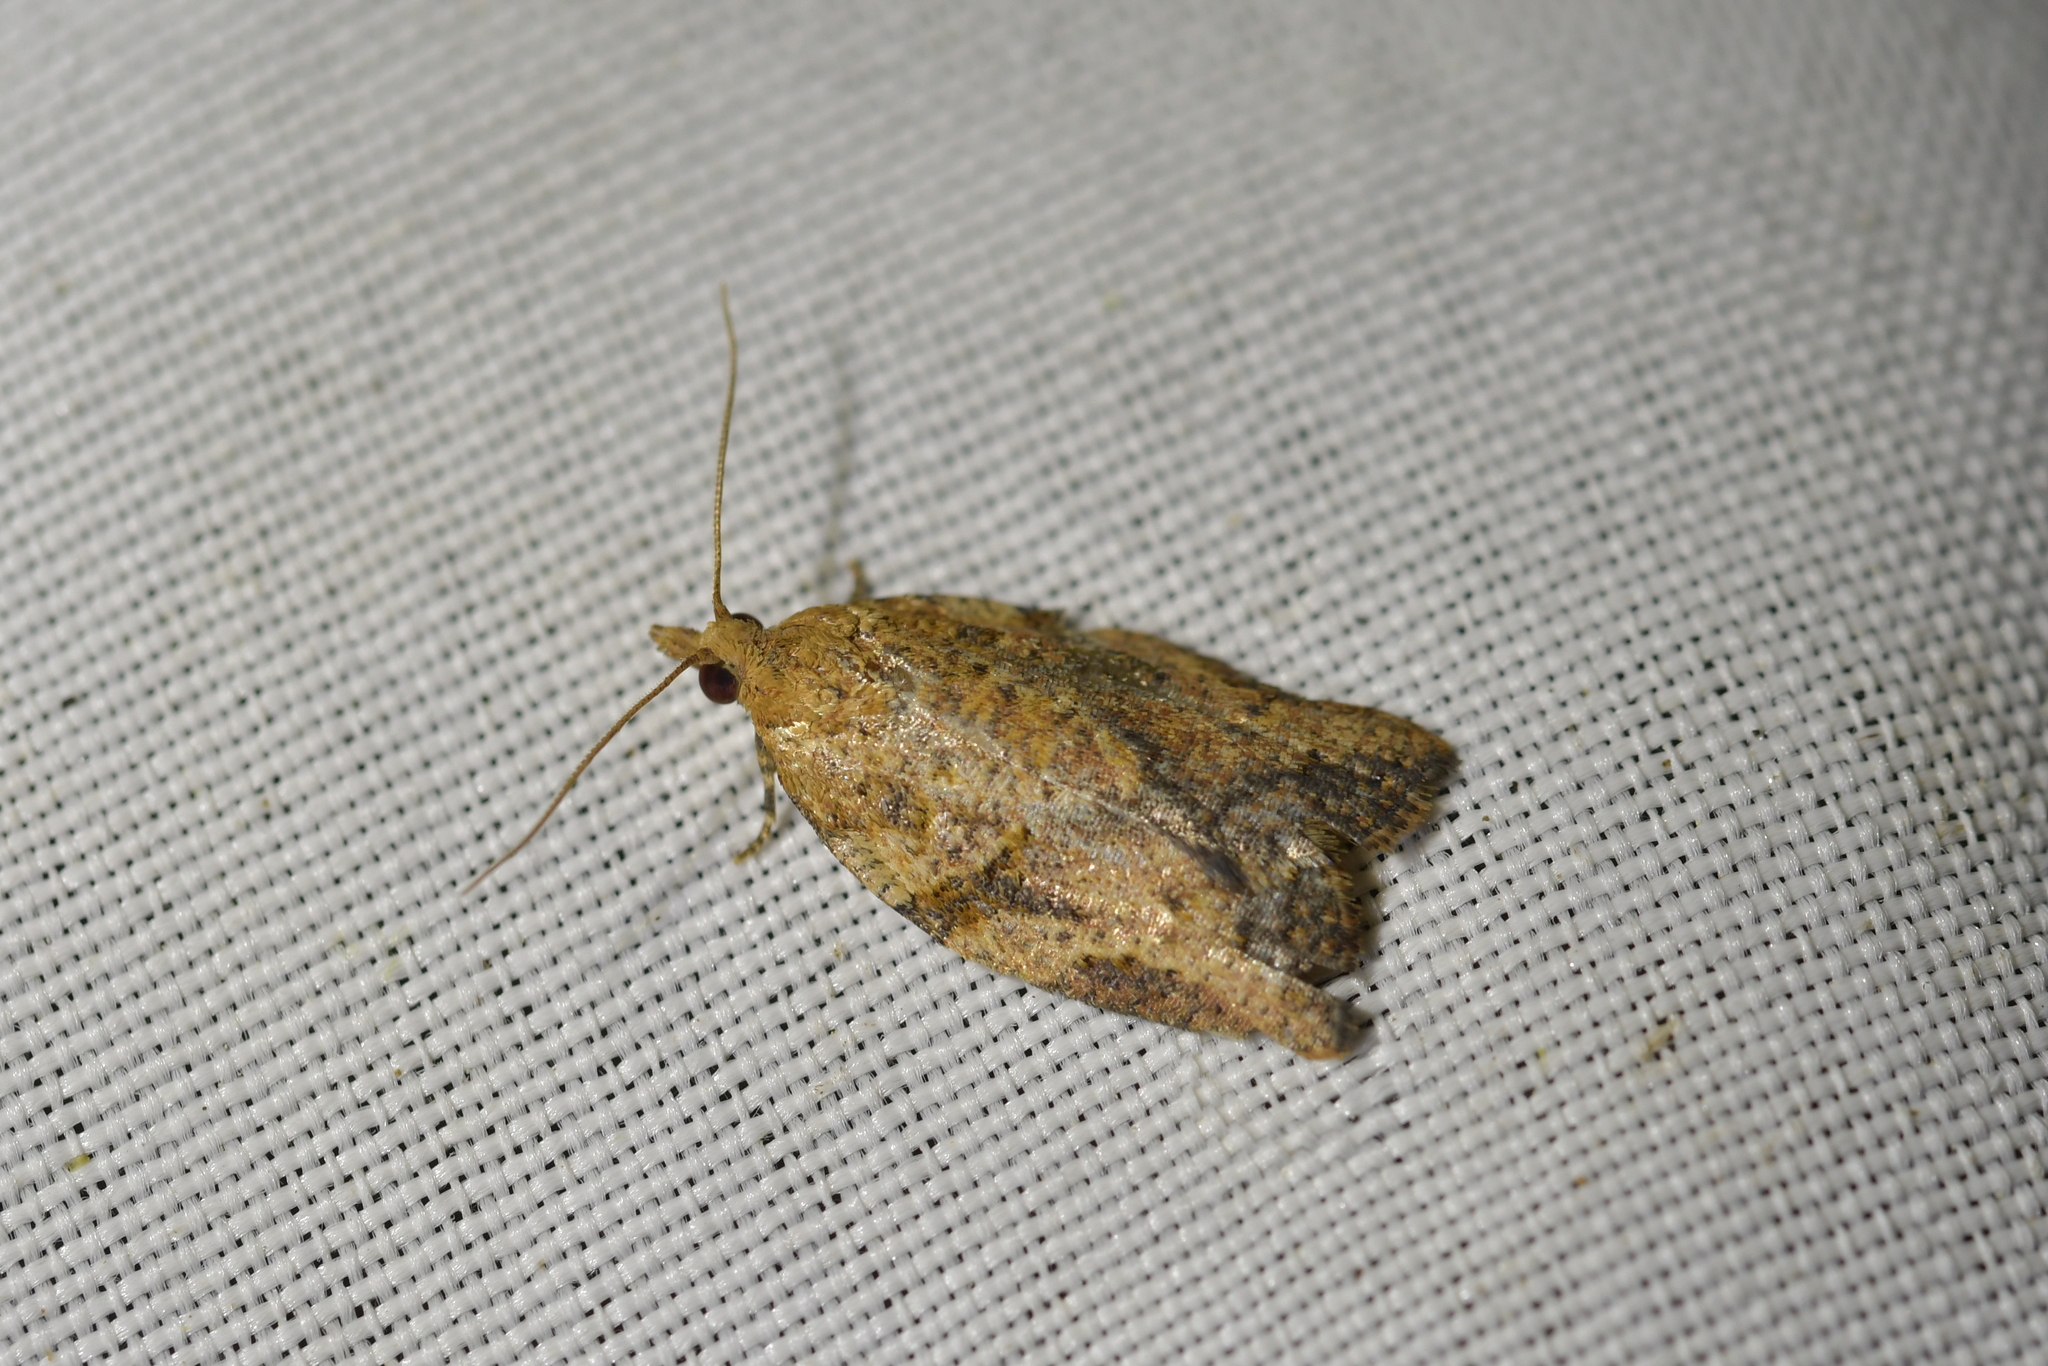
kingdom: Animalia
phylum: Arthropoda
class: Insecta
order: Lepidoptera
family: Tortricidae
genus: Epiphyas
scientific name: Epiphyas postvittana
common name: Light brown apple moth
